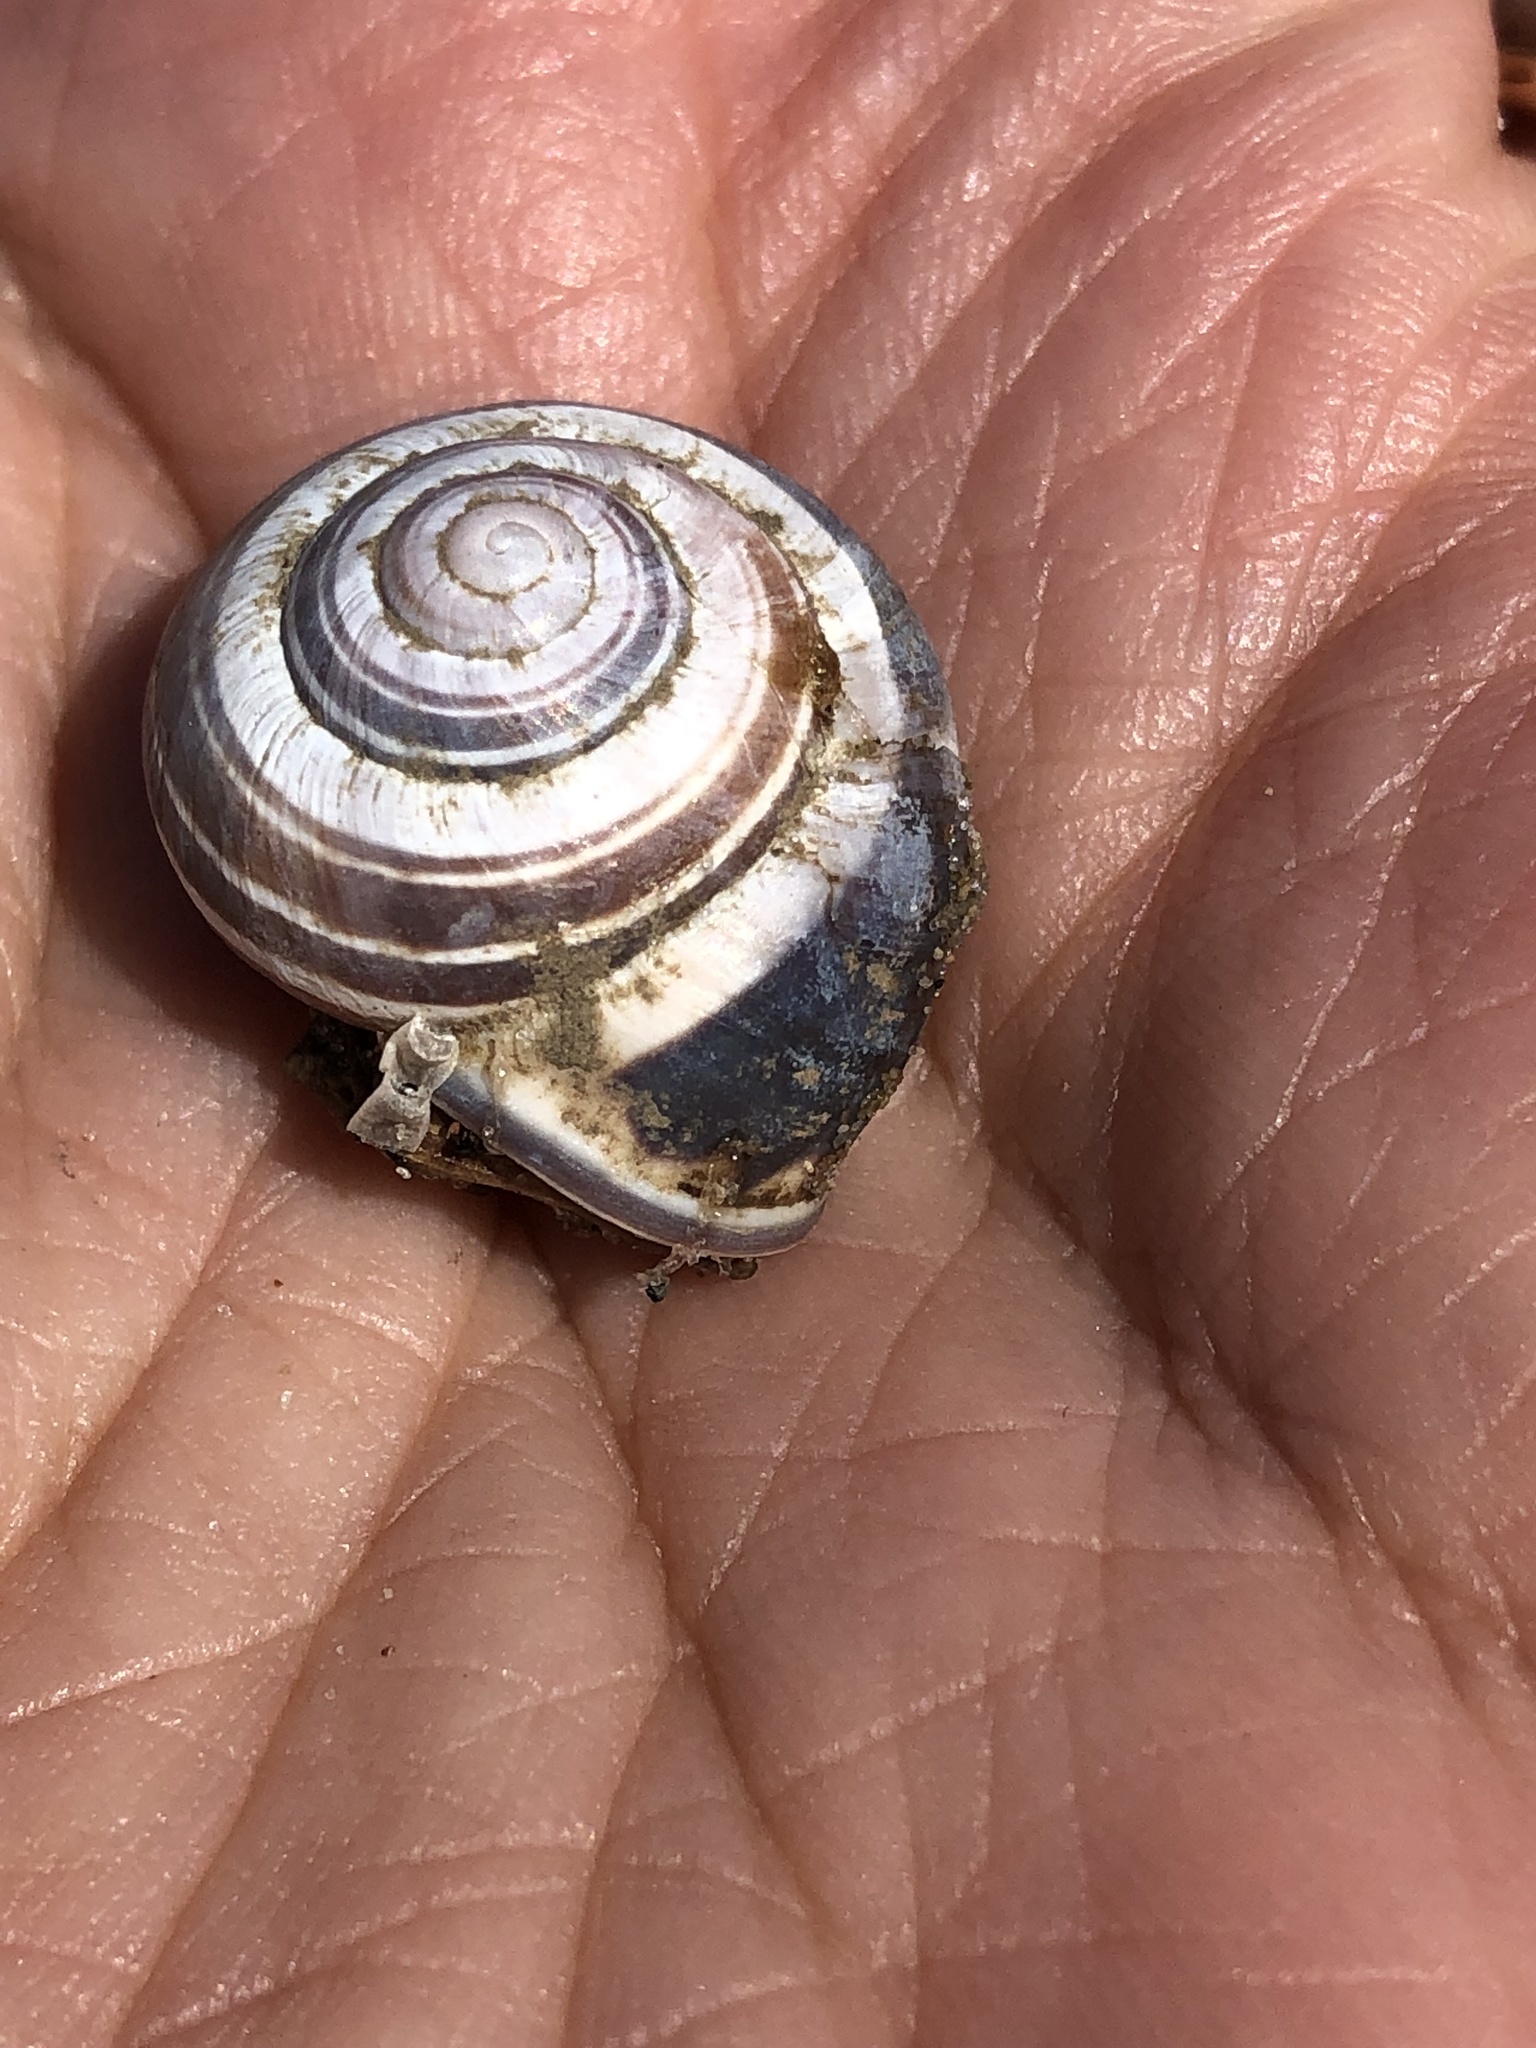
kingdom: Animalia
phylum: Mollusca
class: Gastropoda
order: Stylommatophora
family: Helicidae
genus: Cepaea
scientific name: Cepaea nemoralis
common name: Grovesnail
